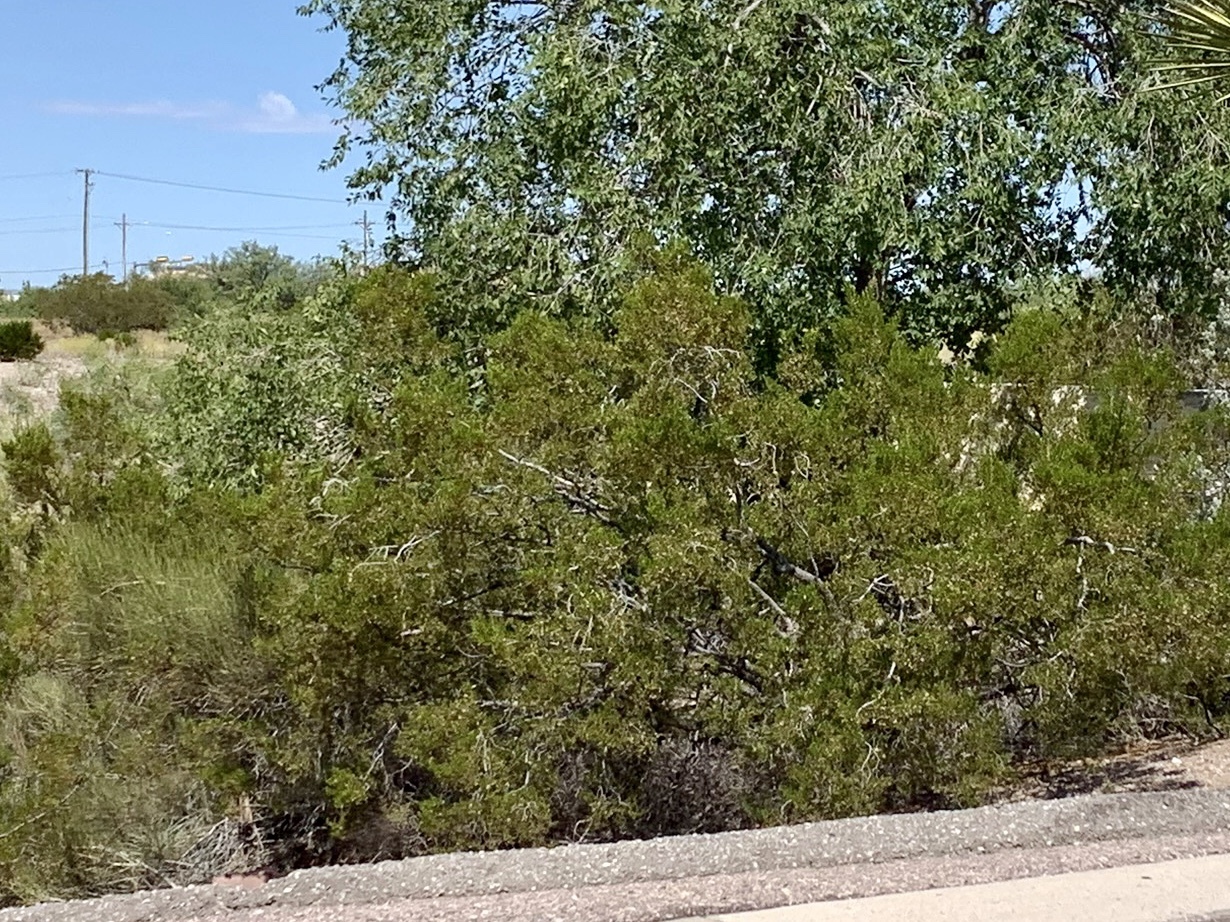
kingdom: Plantae
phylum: Tracheophyta
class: Magnoliopsida
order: Zygophyllales
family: Zygophyllaceae
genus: Larrea
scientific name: Larrea tridentata
